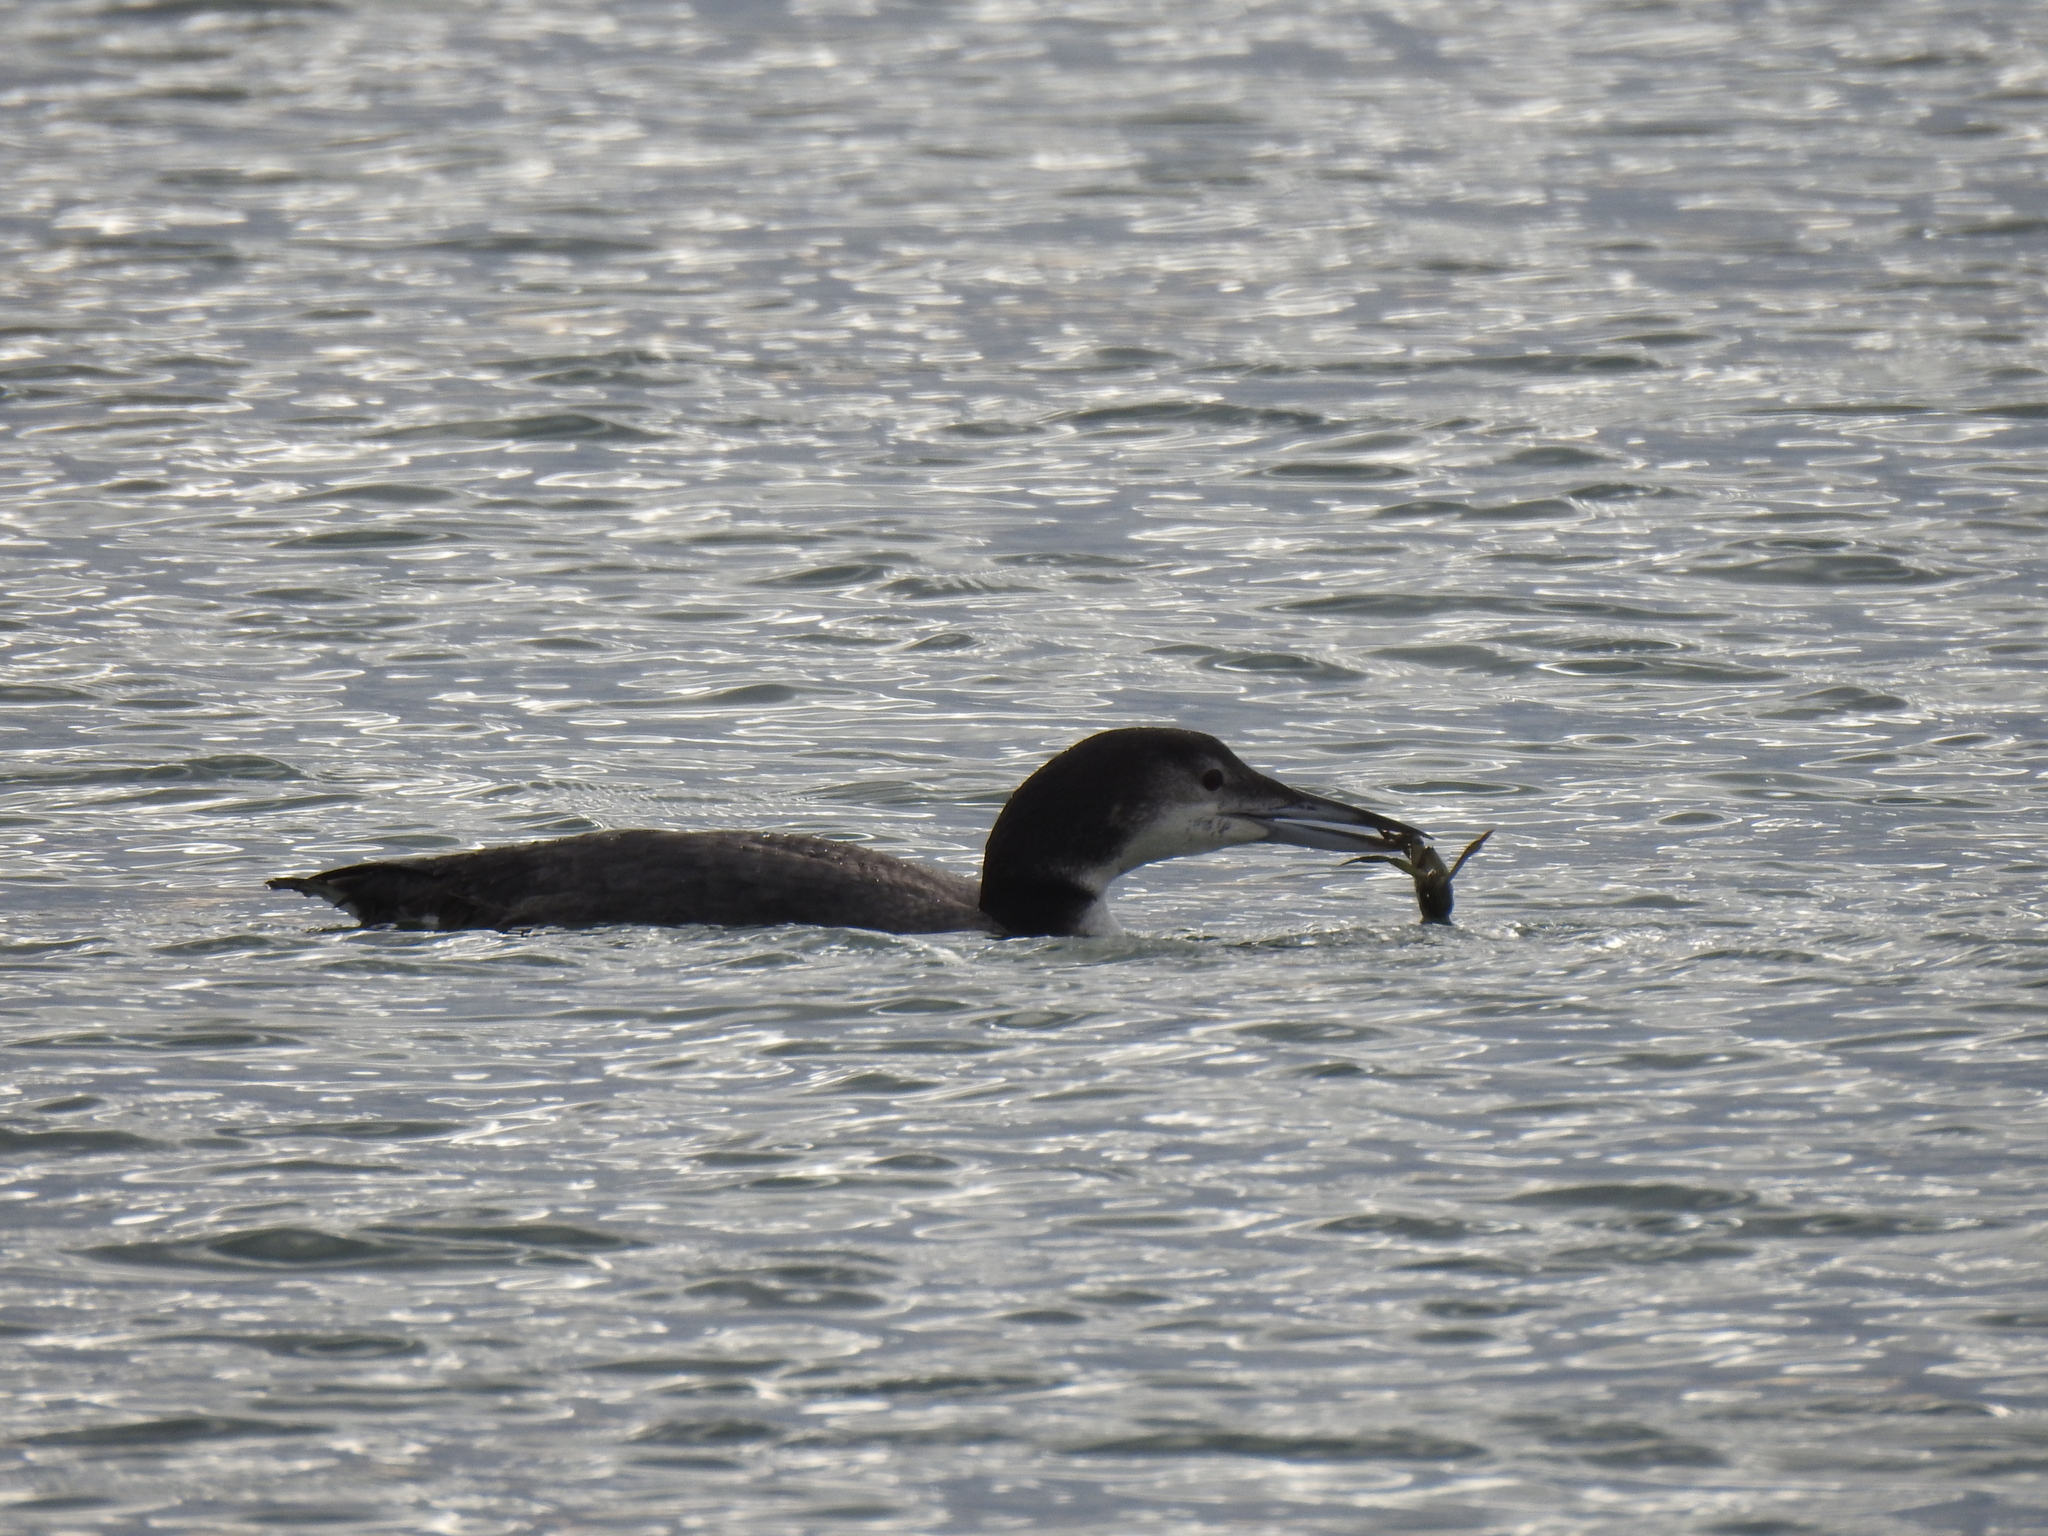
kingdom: Animalia
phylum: Chordata
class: Aves
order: Gaviiformes
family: Gaviidae
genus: Gavia
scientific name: Gavia immer
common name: Common loon
